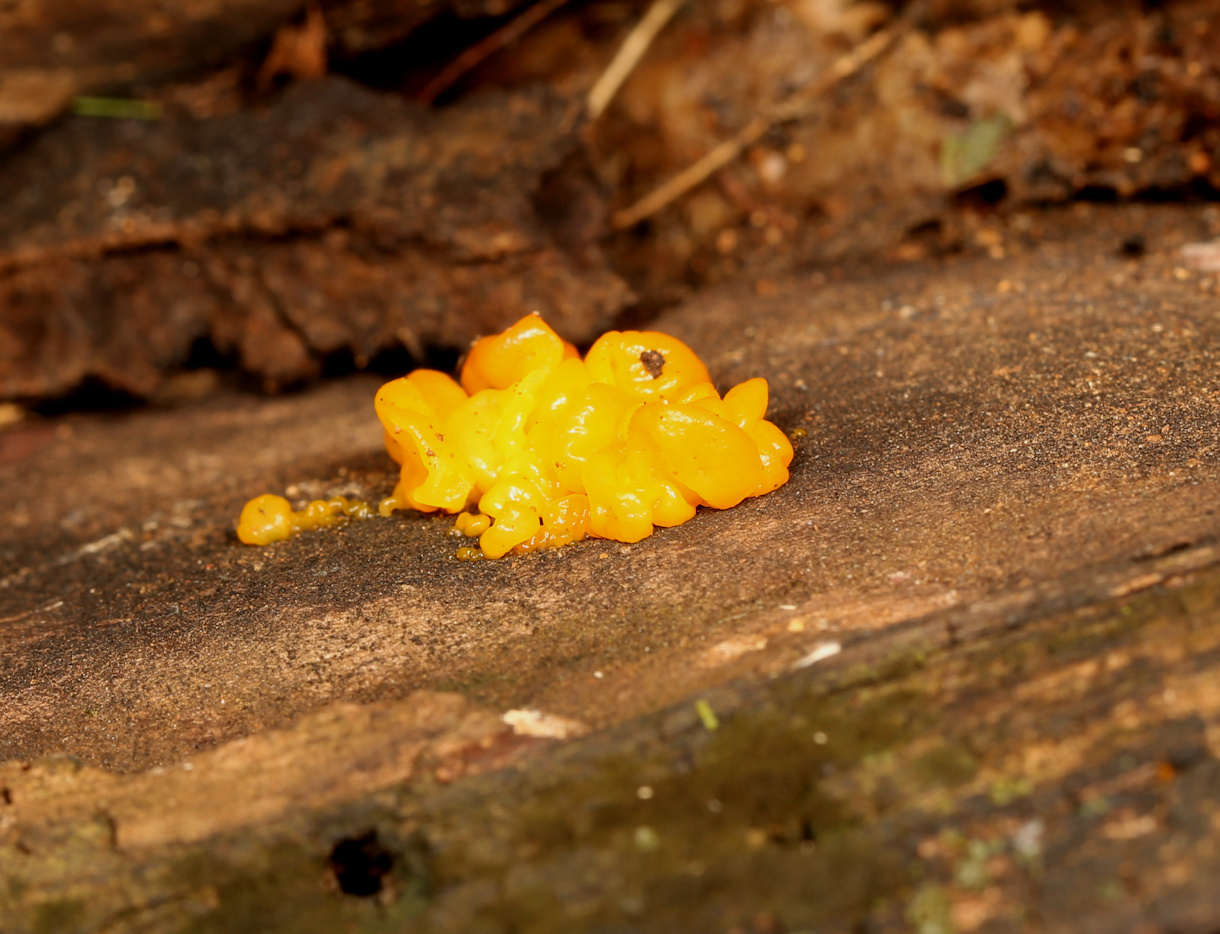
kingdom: Fungi
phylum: Basidiomycota
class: Tremellomycetes
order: Tremellales
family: Tremellaceae
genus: Tremella
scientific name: Tremella mesenterica
